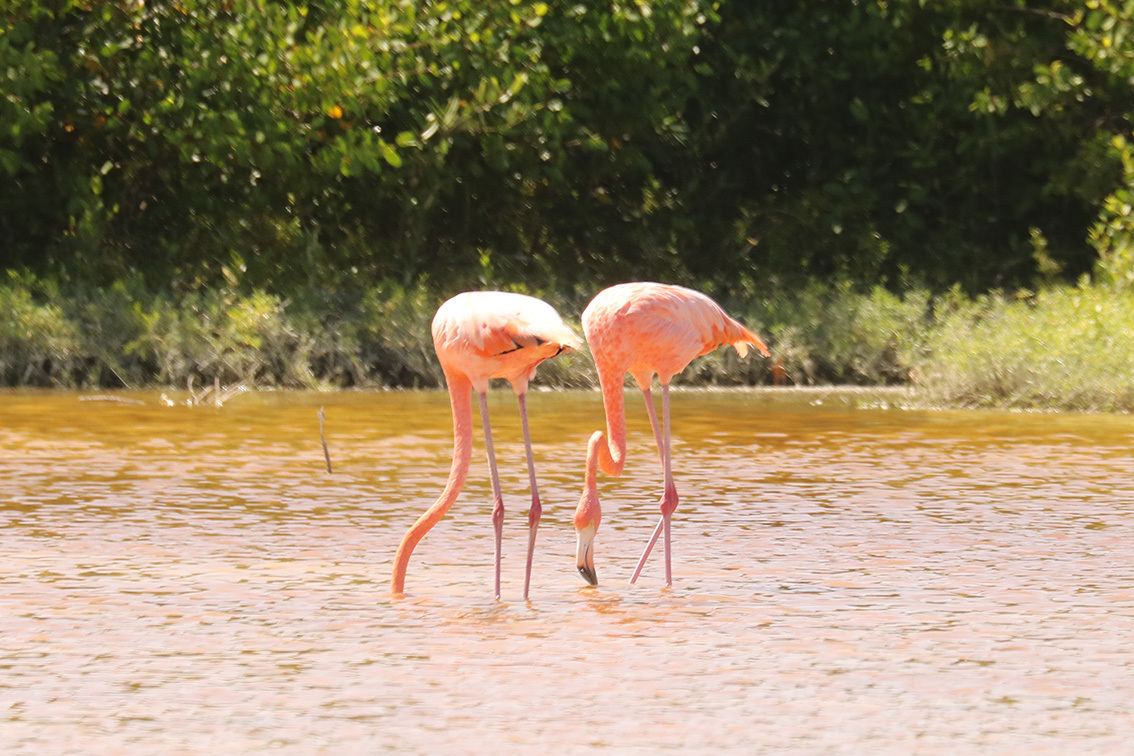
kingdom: Animalia
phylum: Chordata
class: Aves
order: Phoenicopteriformes
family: Phoenicopteridae
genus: Phoenicopterus
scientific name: Phoenicopterus ruber
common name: American flamingo
